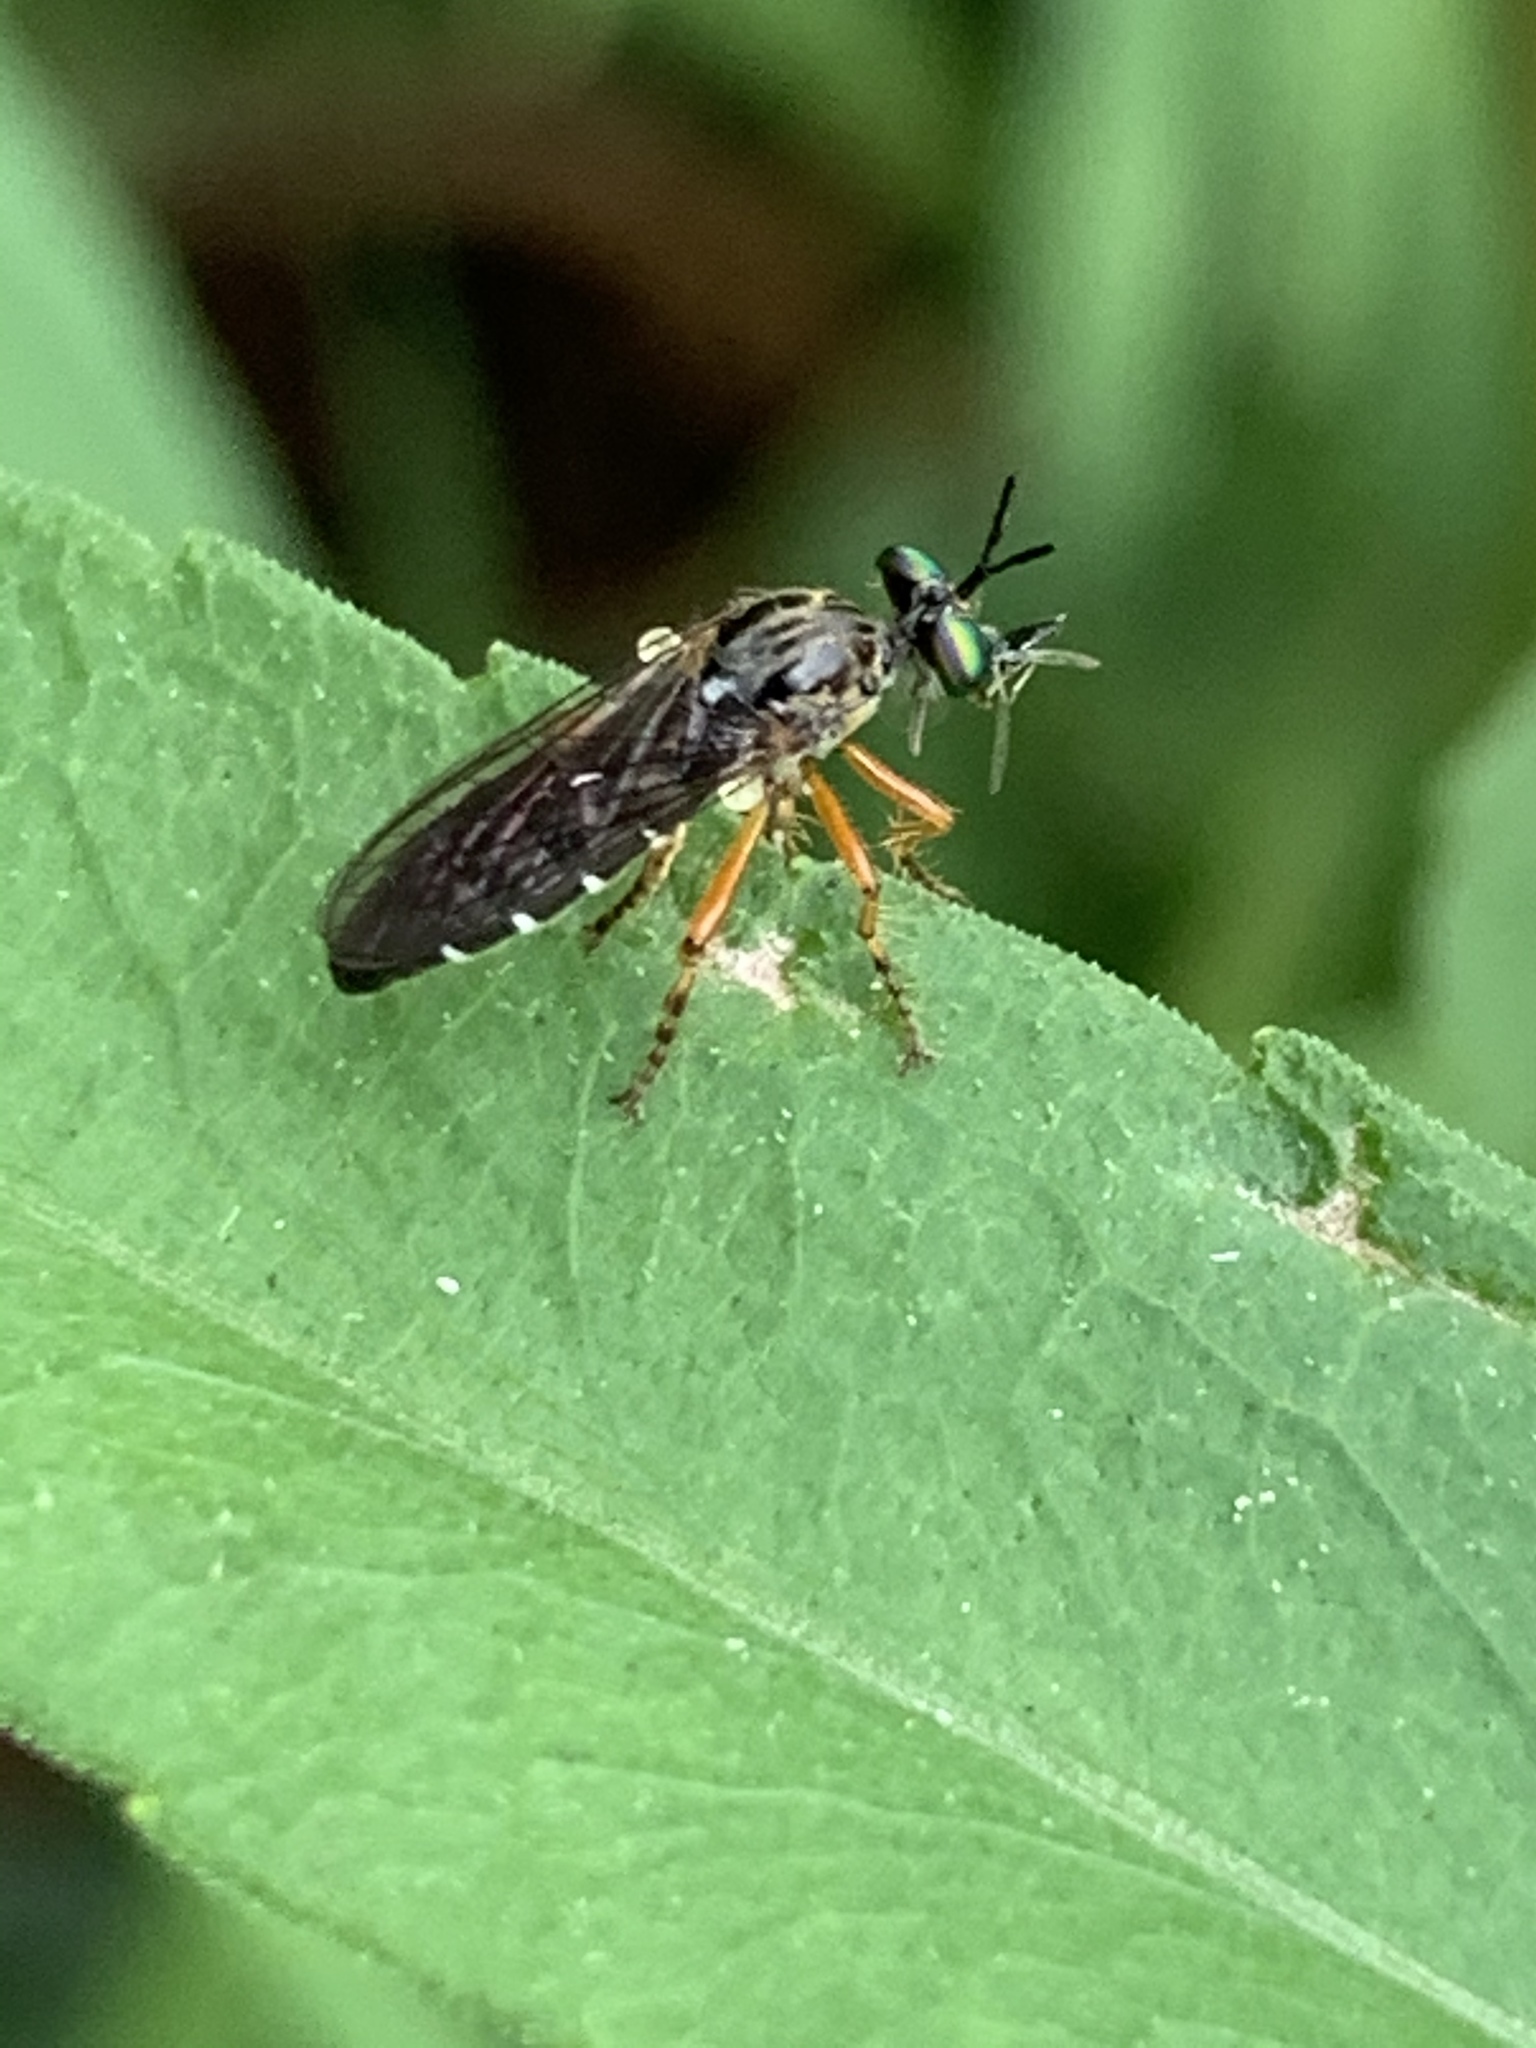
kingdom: Animalia
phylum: Arthropoda
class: Insecta
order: Diptera
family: Asilidae
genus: Taracticus
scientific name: Taracticus octopunctatus
